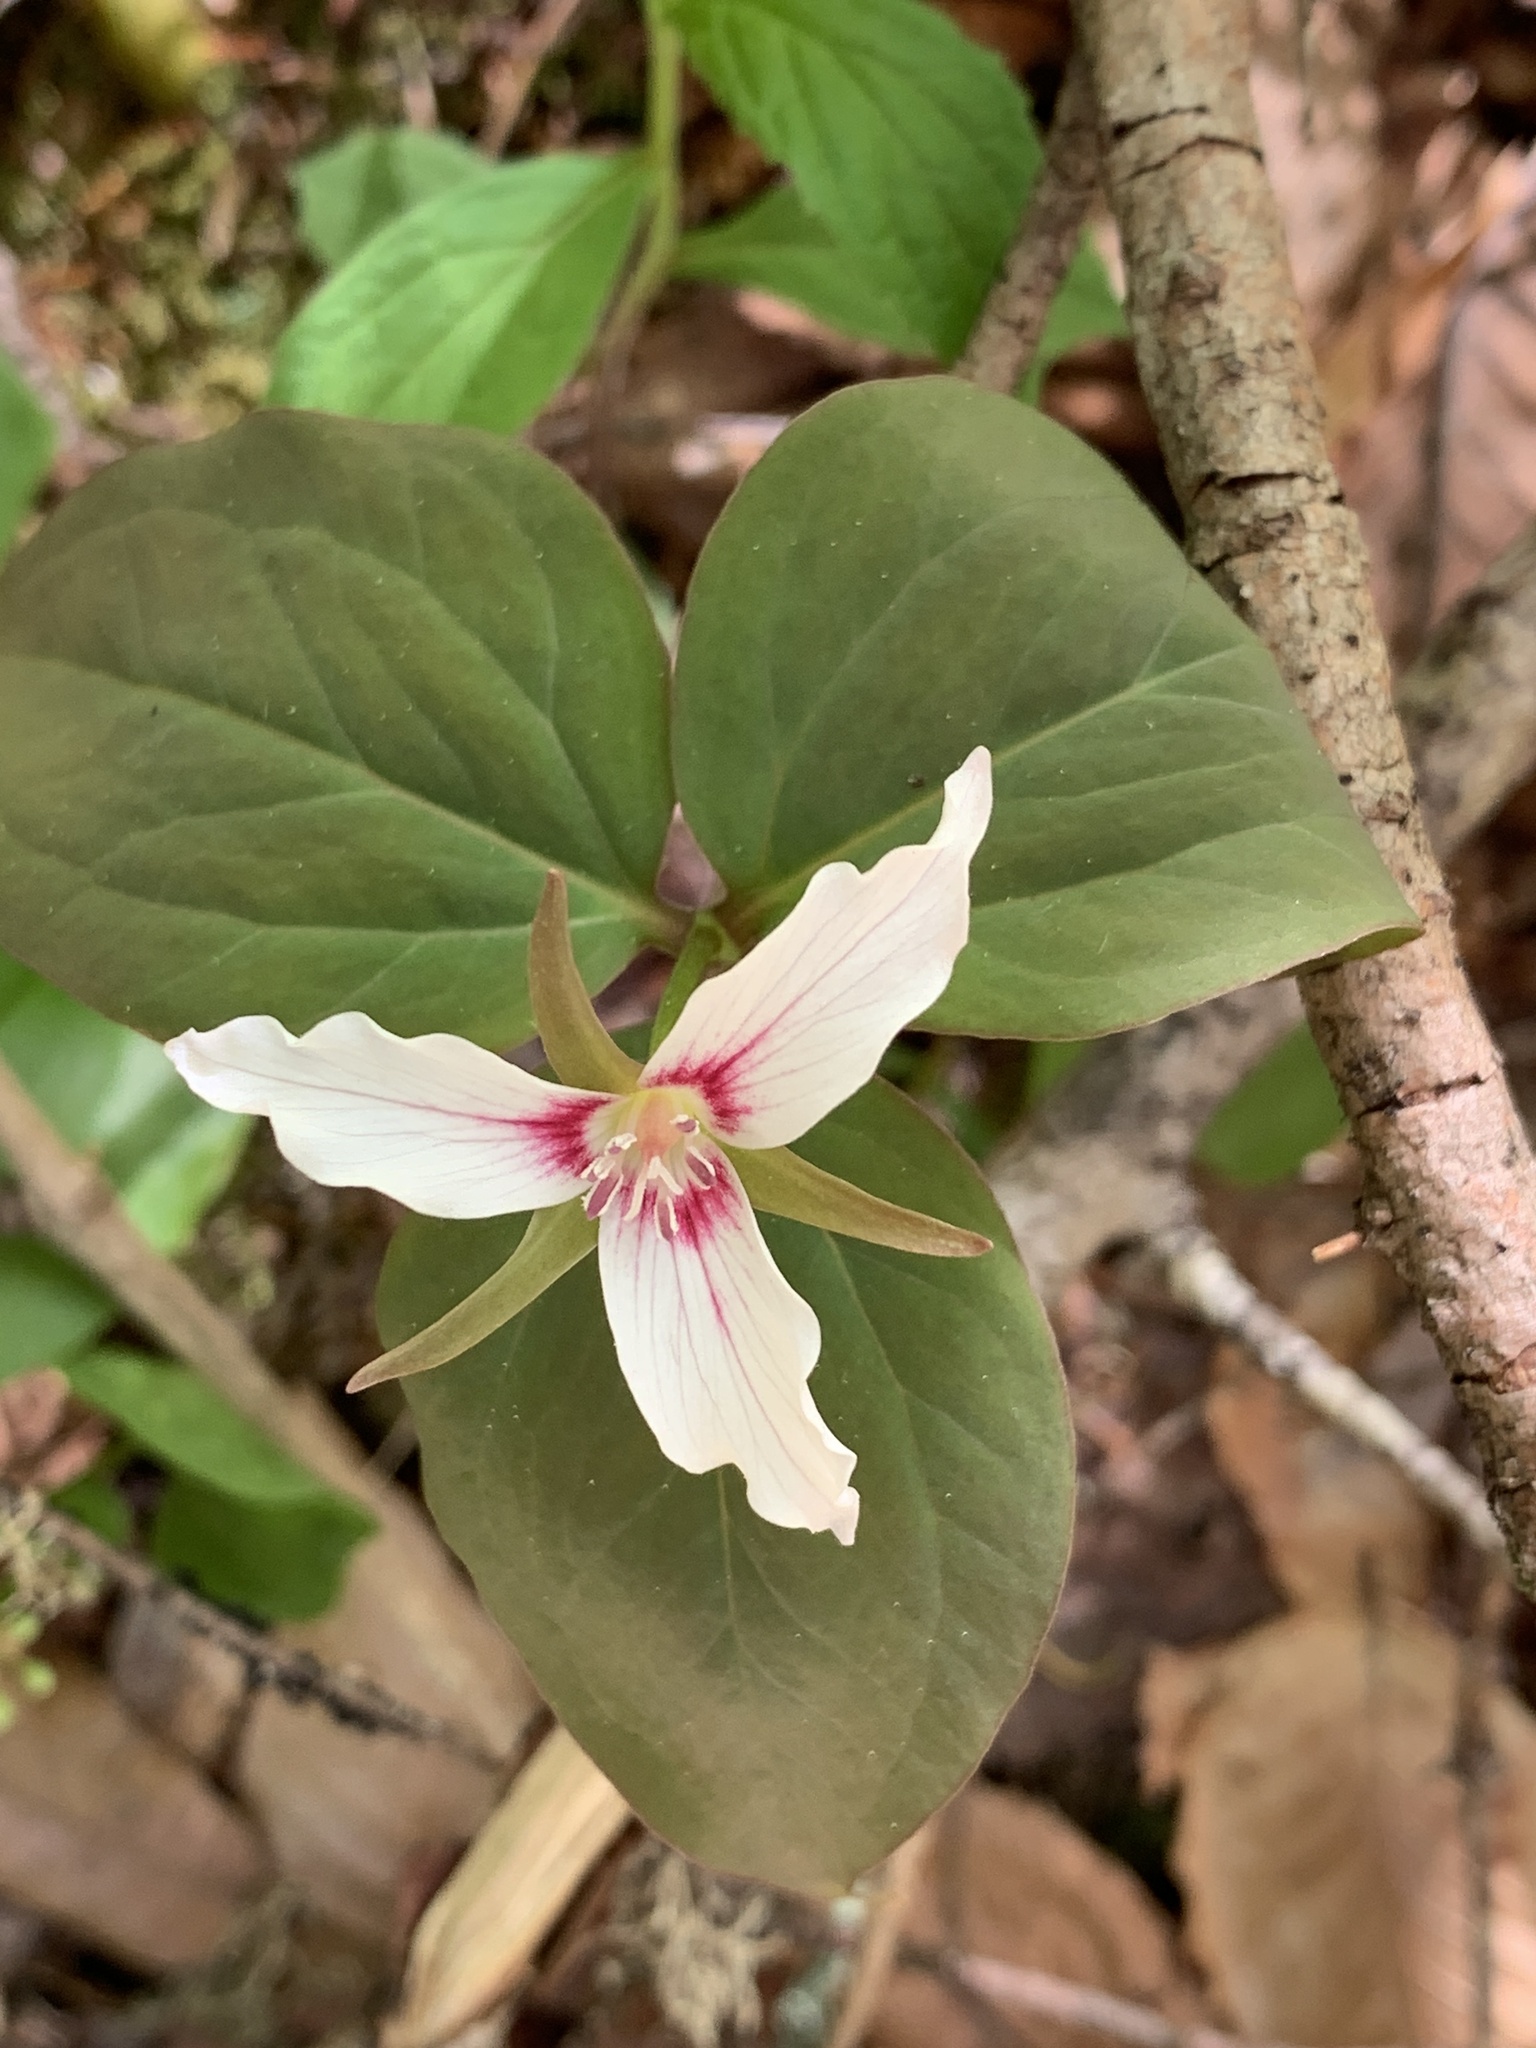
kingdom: Plantae
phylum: Tracheophyta
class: Liliopsida
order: Liliales
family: Melanthiaceae
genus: Trillium
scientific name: Trillium undulatum
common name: Paint trillium
